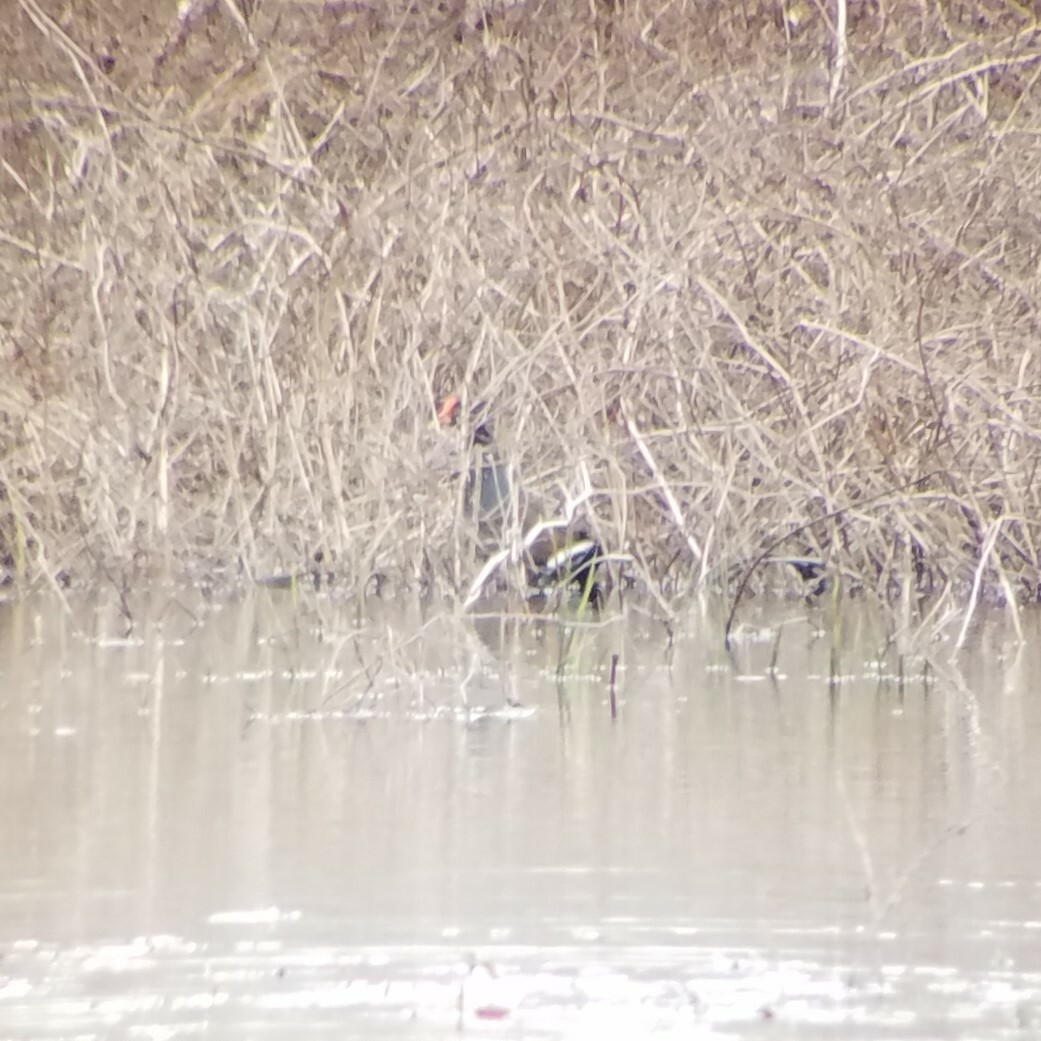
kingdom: Animalia
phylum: Chordata
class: Aves
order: Gruiformes
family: Rallidae
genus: Gallinula
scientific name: Gallinula chloropus
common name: Common moorhen
